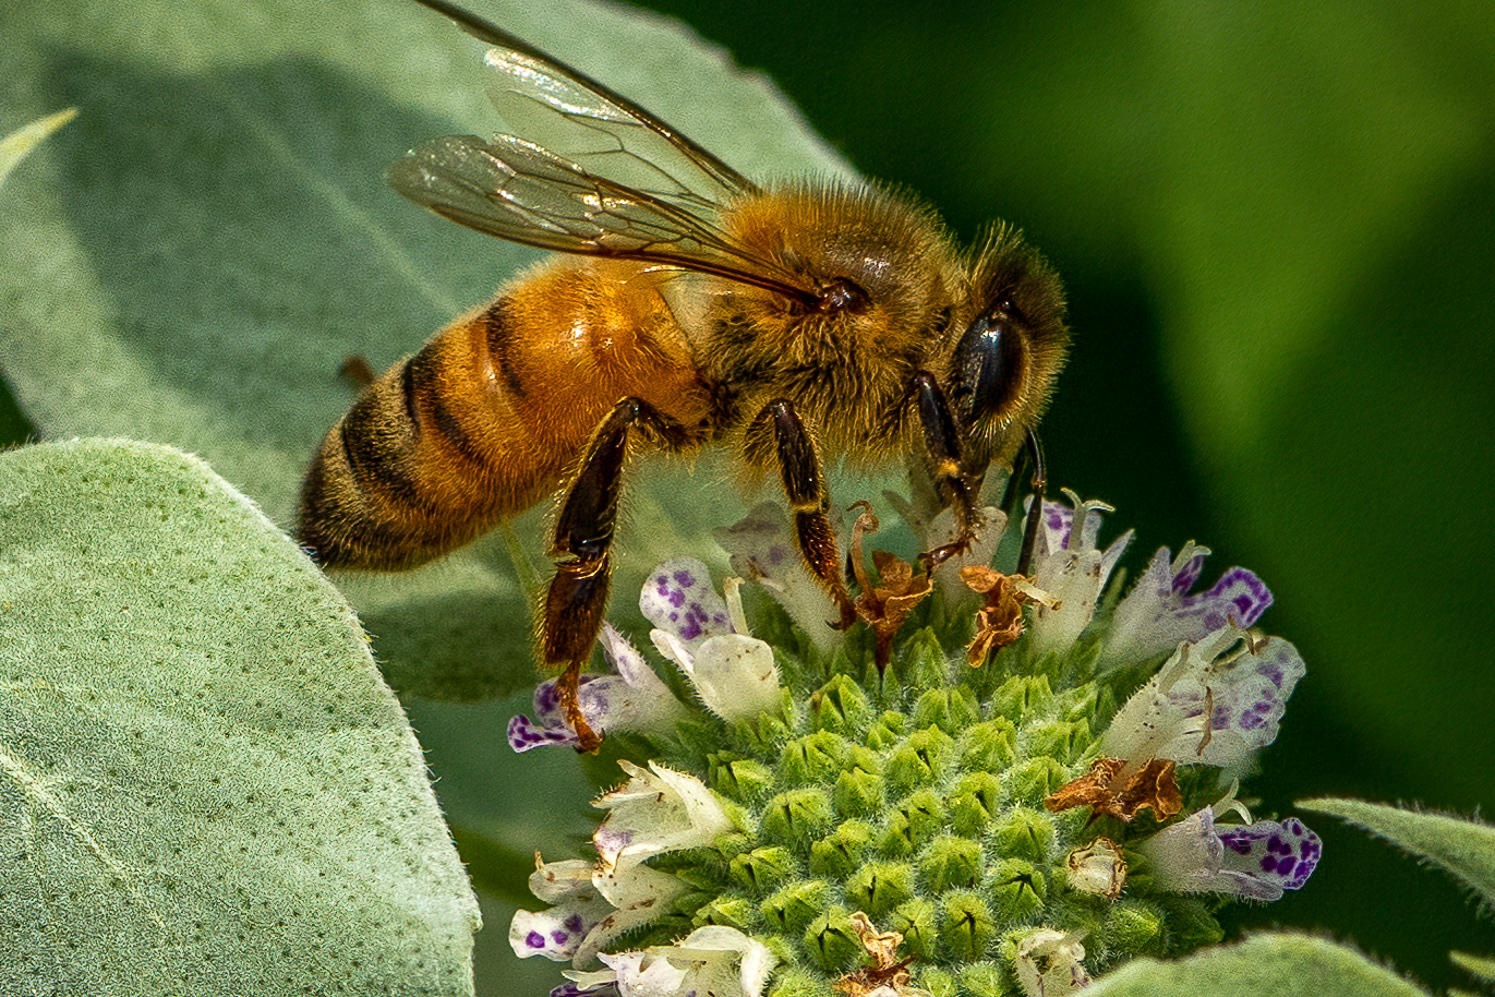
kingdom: Animalia
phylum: Arthropoda
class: Insecta
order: Hymenoptera
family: Apidae
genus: Apis
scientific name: Apis mellifera
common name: Honey bee
